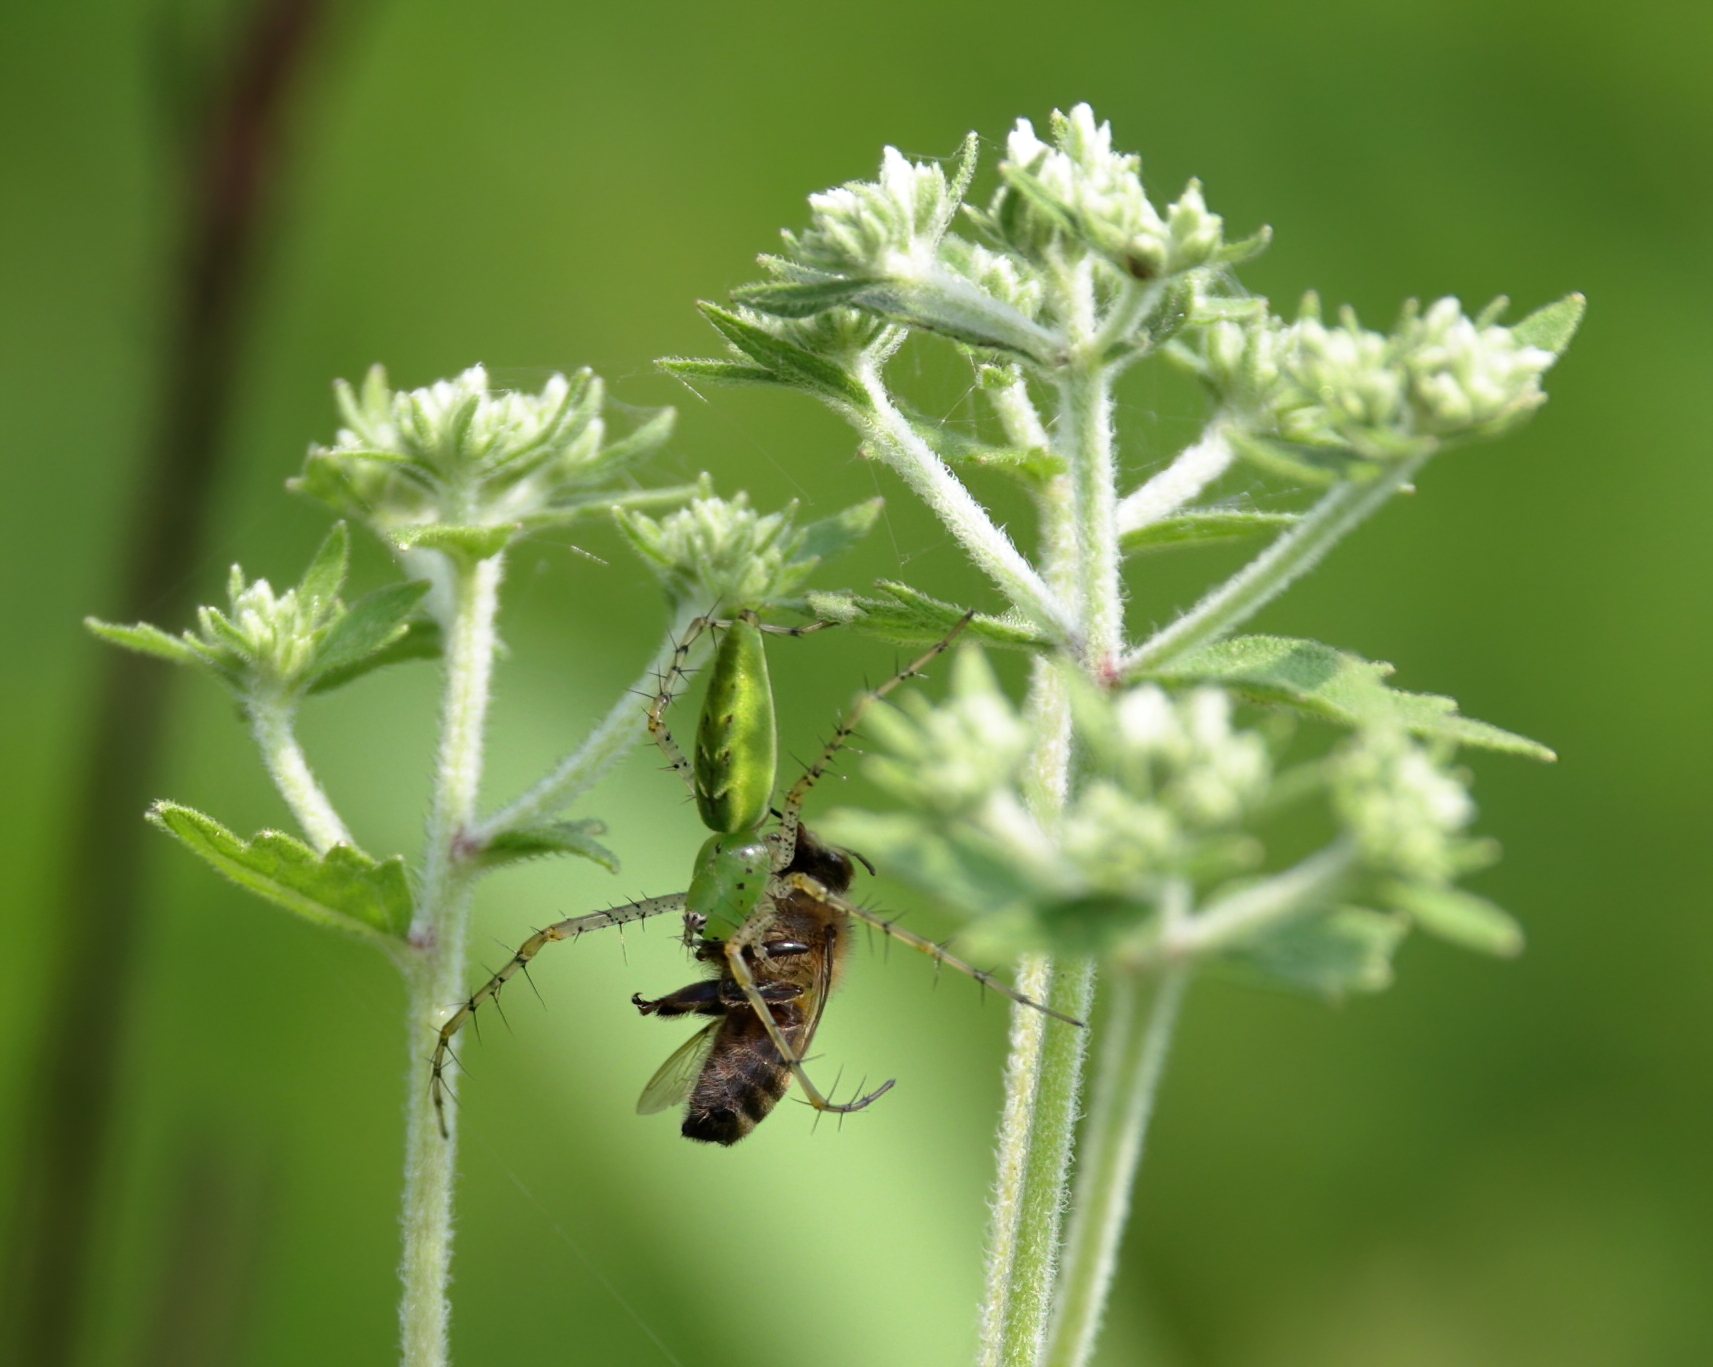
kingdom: Animalia
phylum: Arthropoda
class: Arachnida
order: Araneae
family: Oxyopidae
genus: Peucetia
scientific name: Peucetia viridans
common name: Lynx spiders
